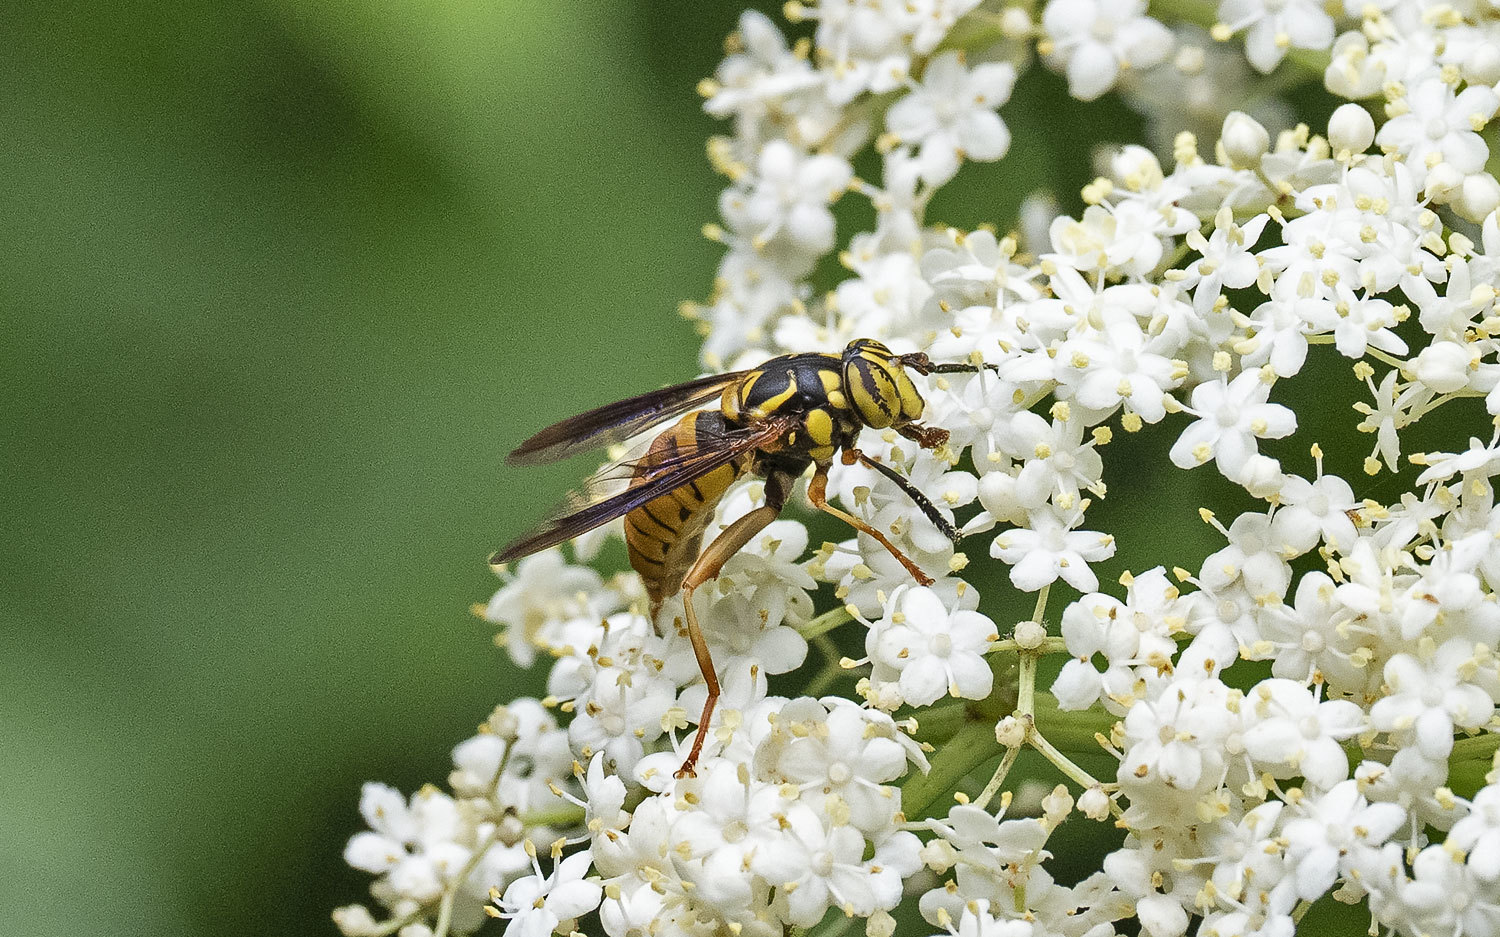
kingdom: Animalia
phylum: Arthropoda
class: Insecta
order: Diptera
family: Syrphidae
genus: Spilomyia
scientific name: Spilomyia alcimus
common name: Broad-banded hornet fly
